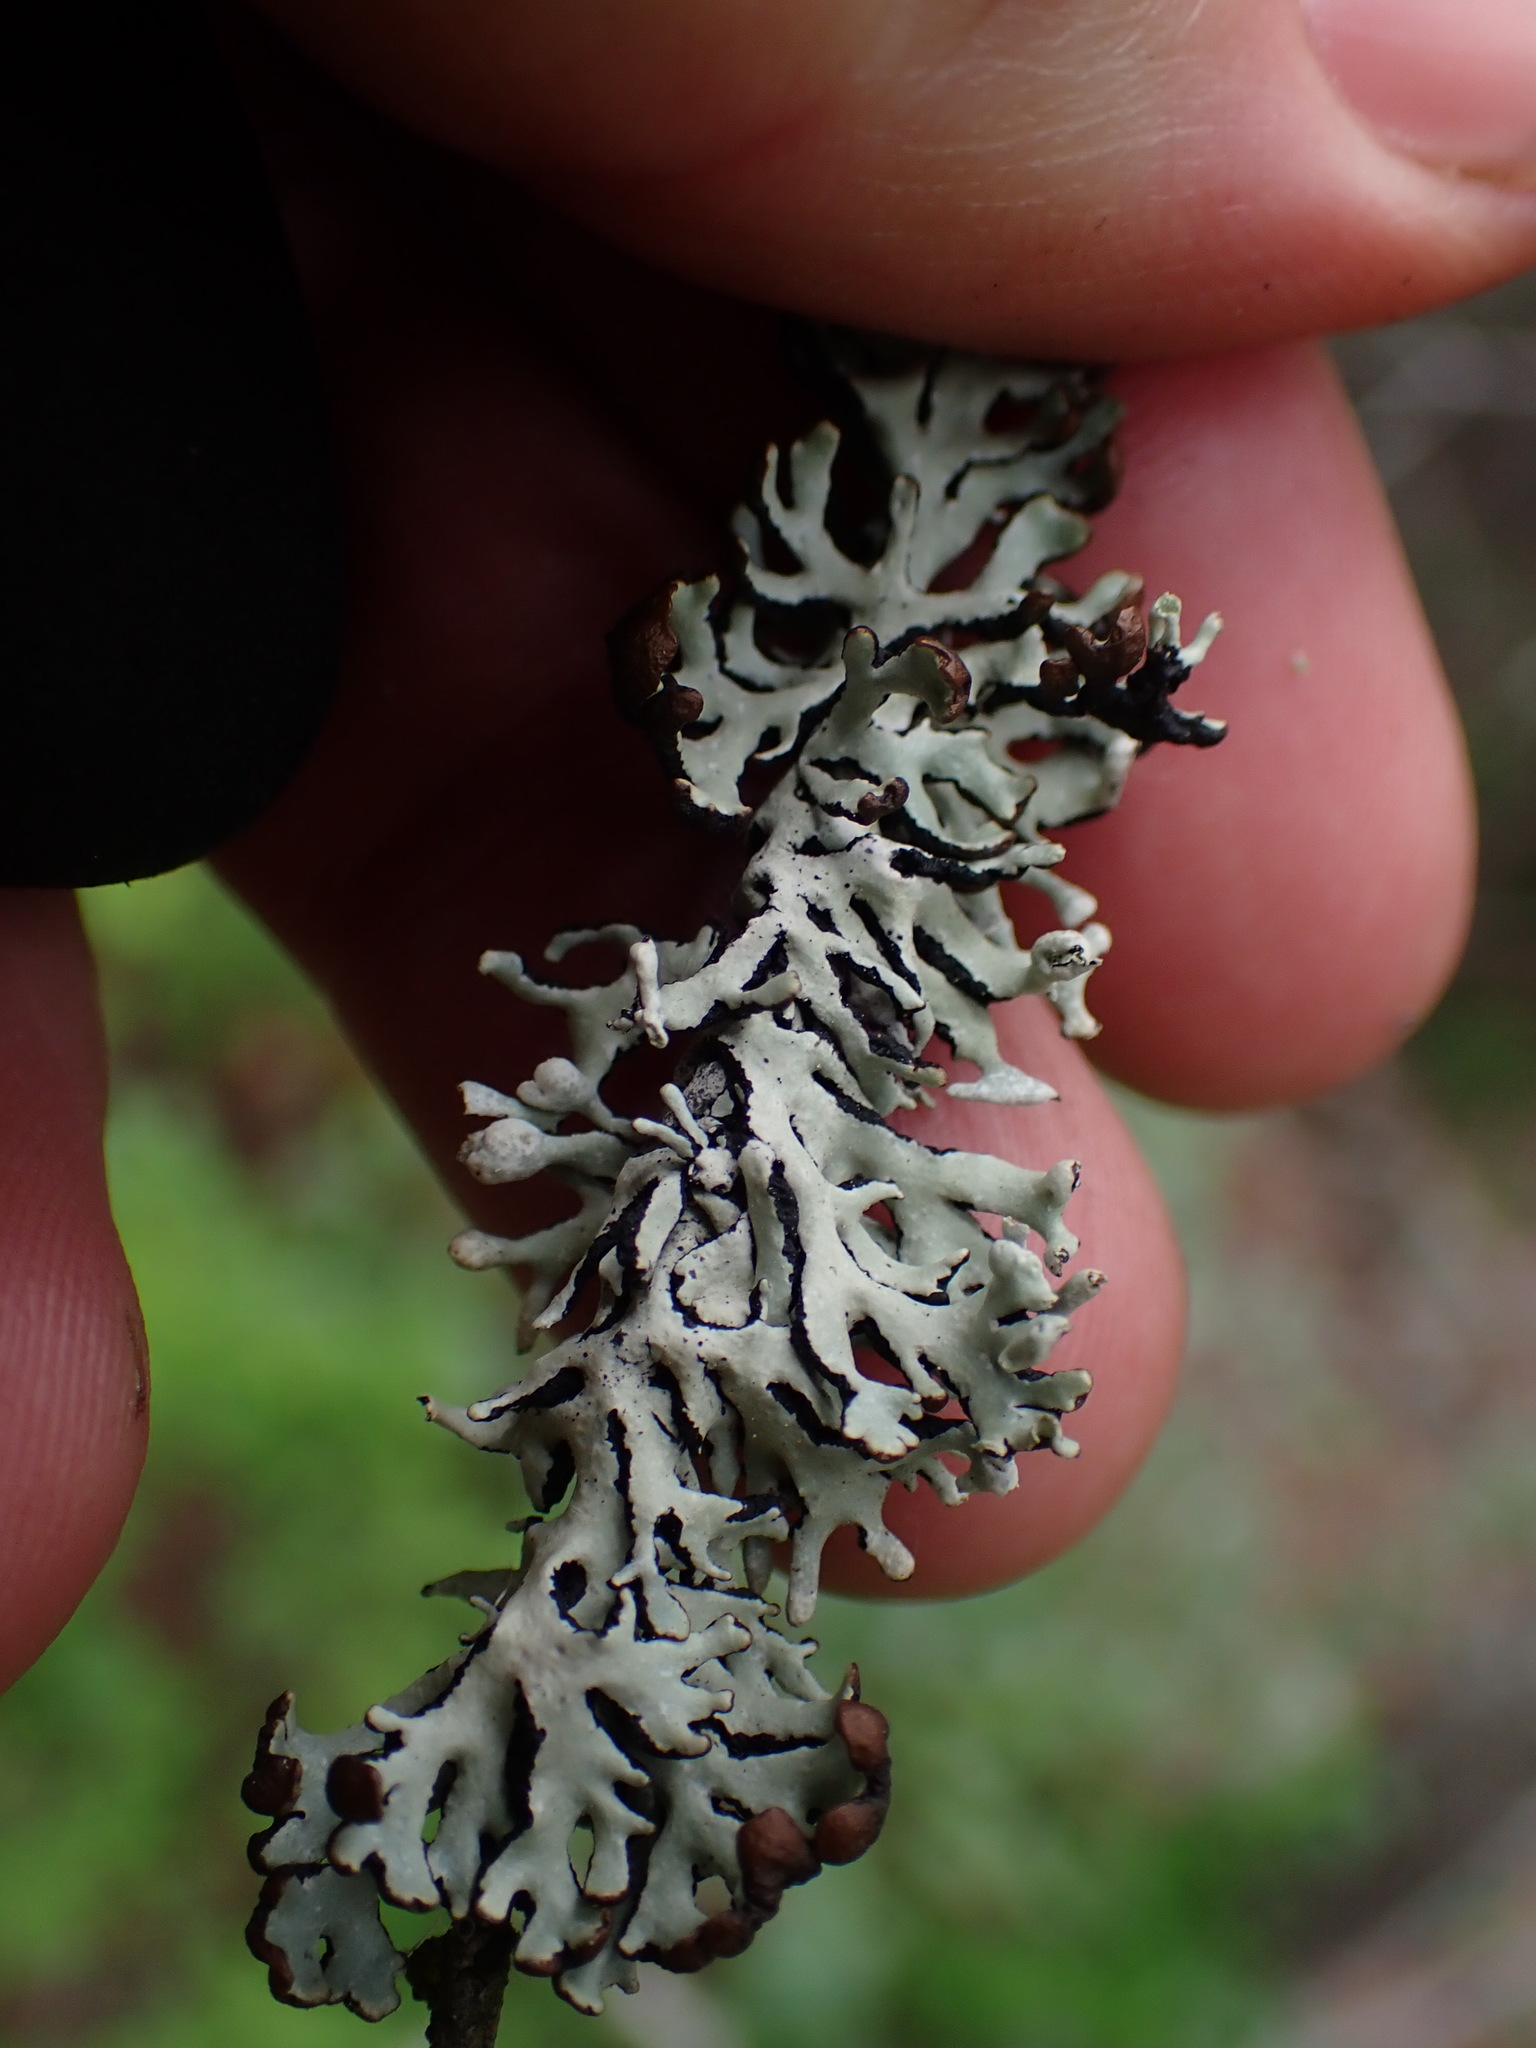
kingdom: Fungi
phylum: Ascomycota
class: Lecanoromycetes
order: Lecanorales
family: Parmeliaceae
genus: Hypogymnia
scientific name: Hypogymnia physodes
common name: Dark crottle
